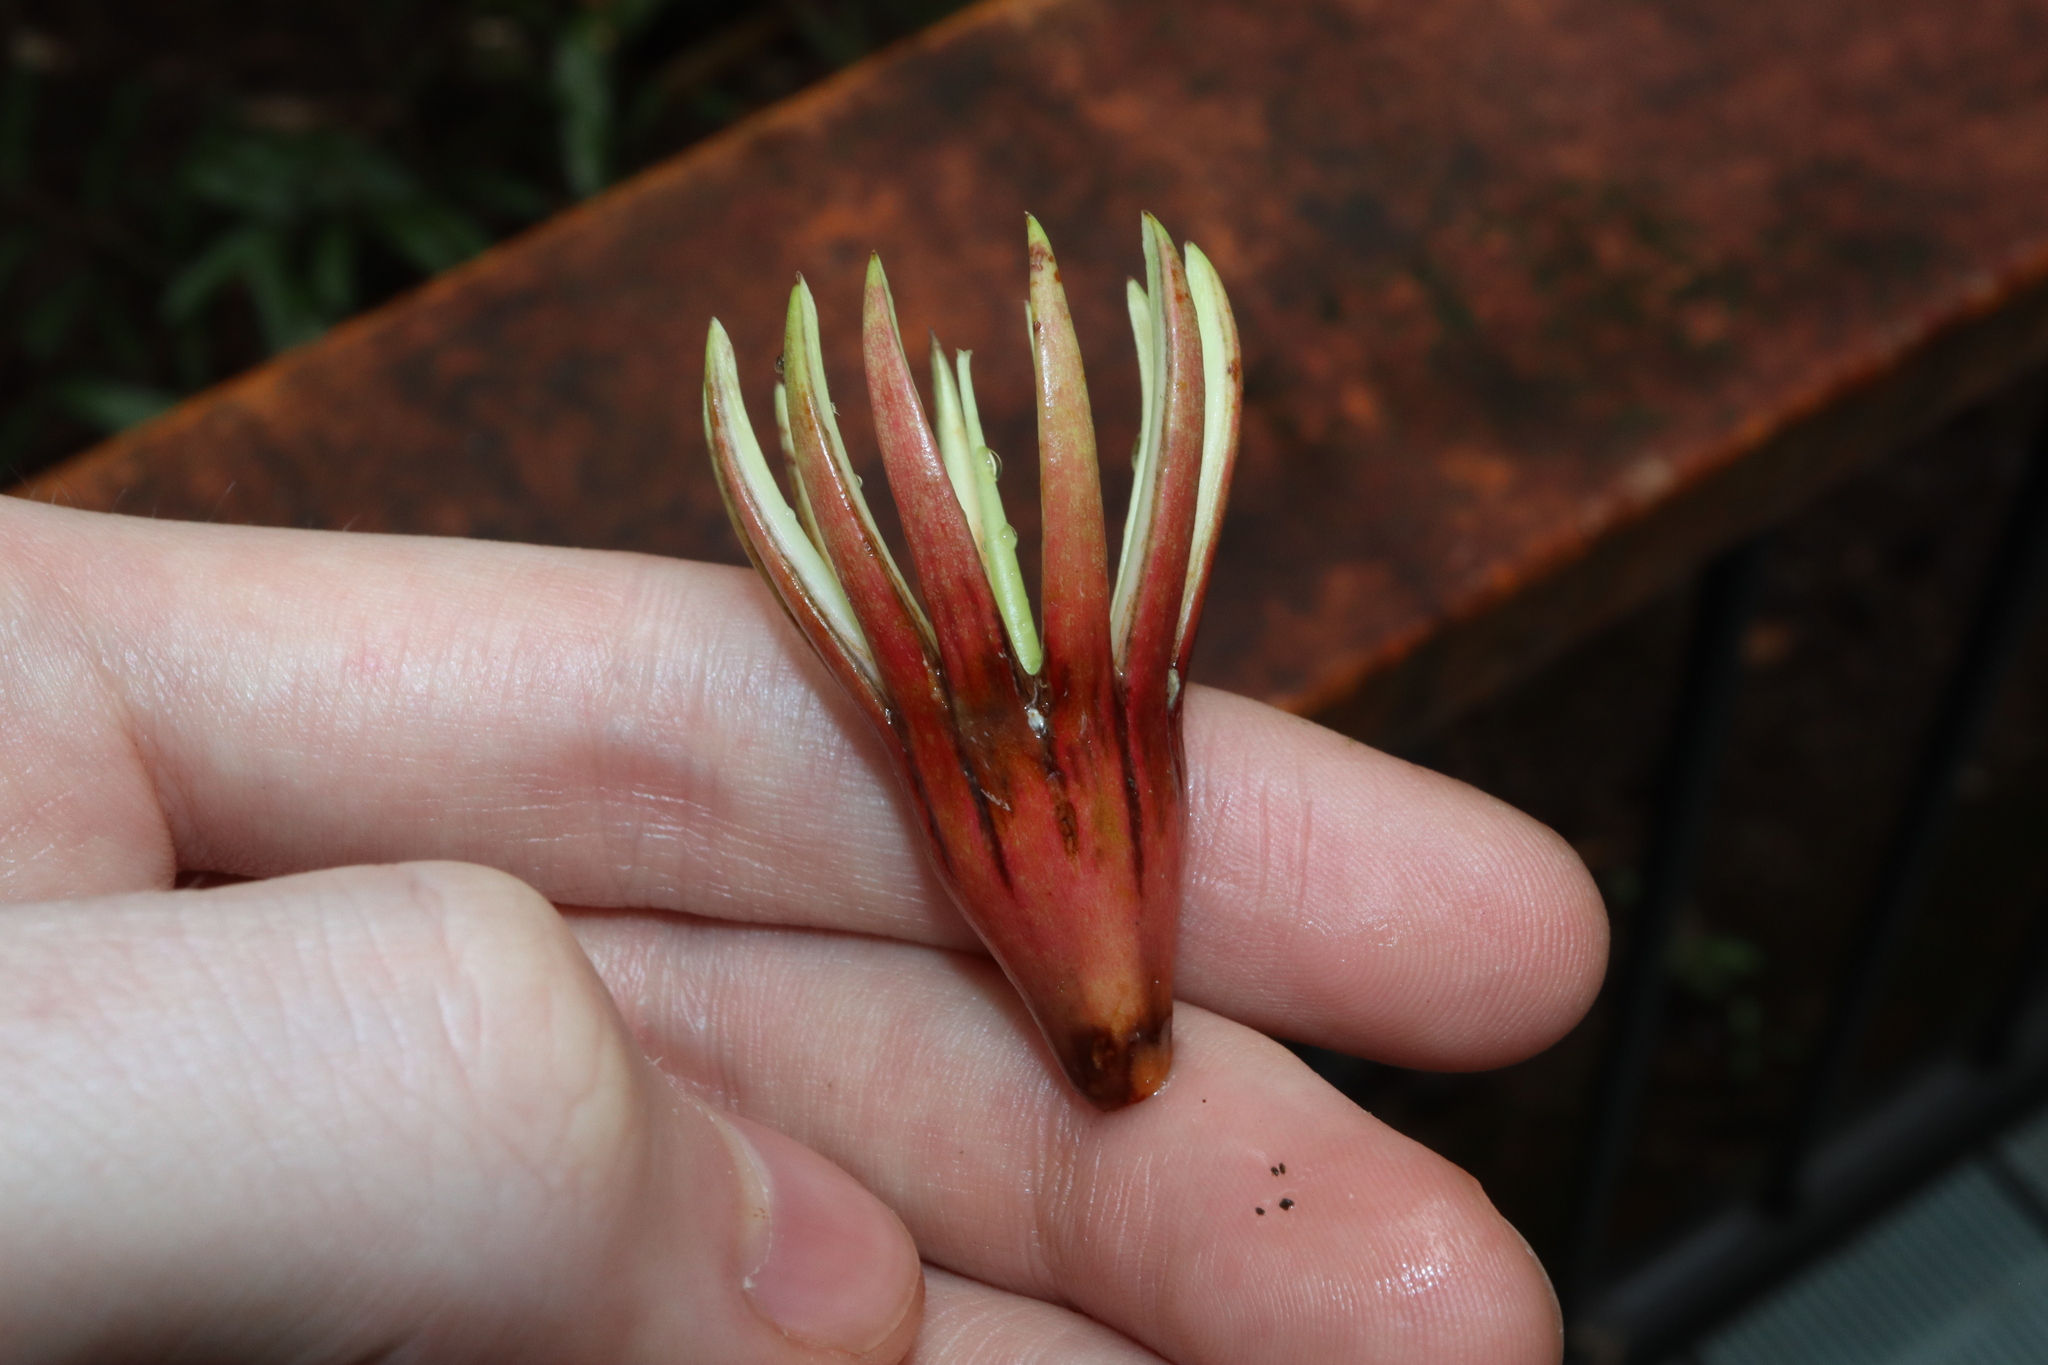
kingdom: Plantae
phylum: Tracheophyta
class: Magnoliopsida
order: Malpighiales
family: Rhizophoraceae
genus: Bruguiera
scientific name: Bruguiera gymnorhiza
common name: Oriental mangrove
